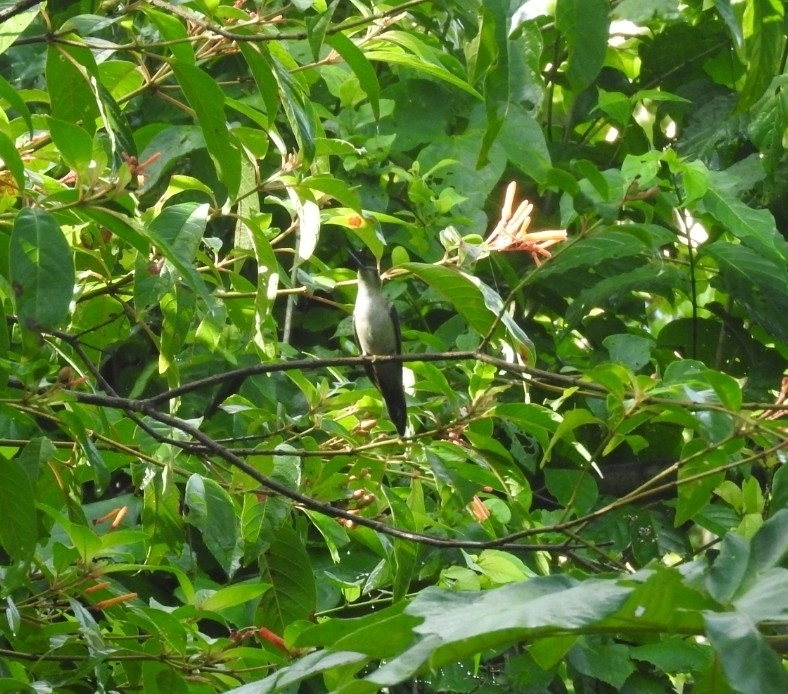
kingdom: Animalia
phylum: Chordata
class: Aves
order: Apodiformes
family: Trochilidae
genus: Pampa
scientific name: Pampa curvipennis
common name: Curve-winged sabrewing
